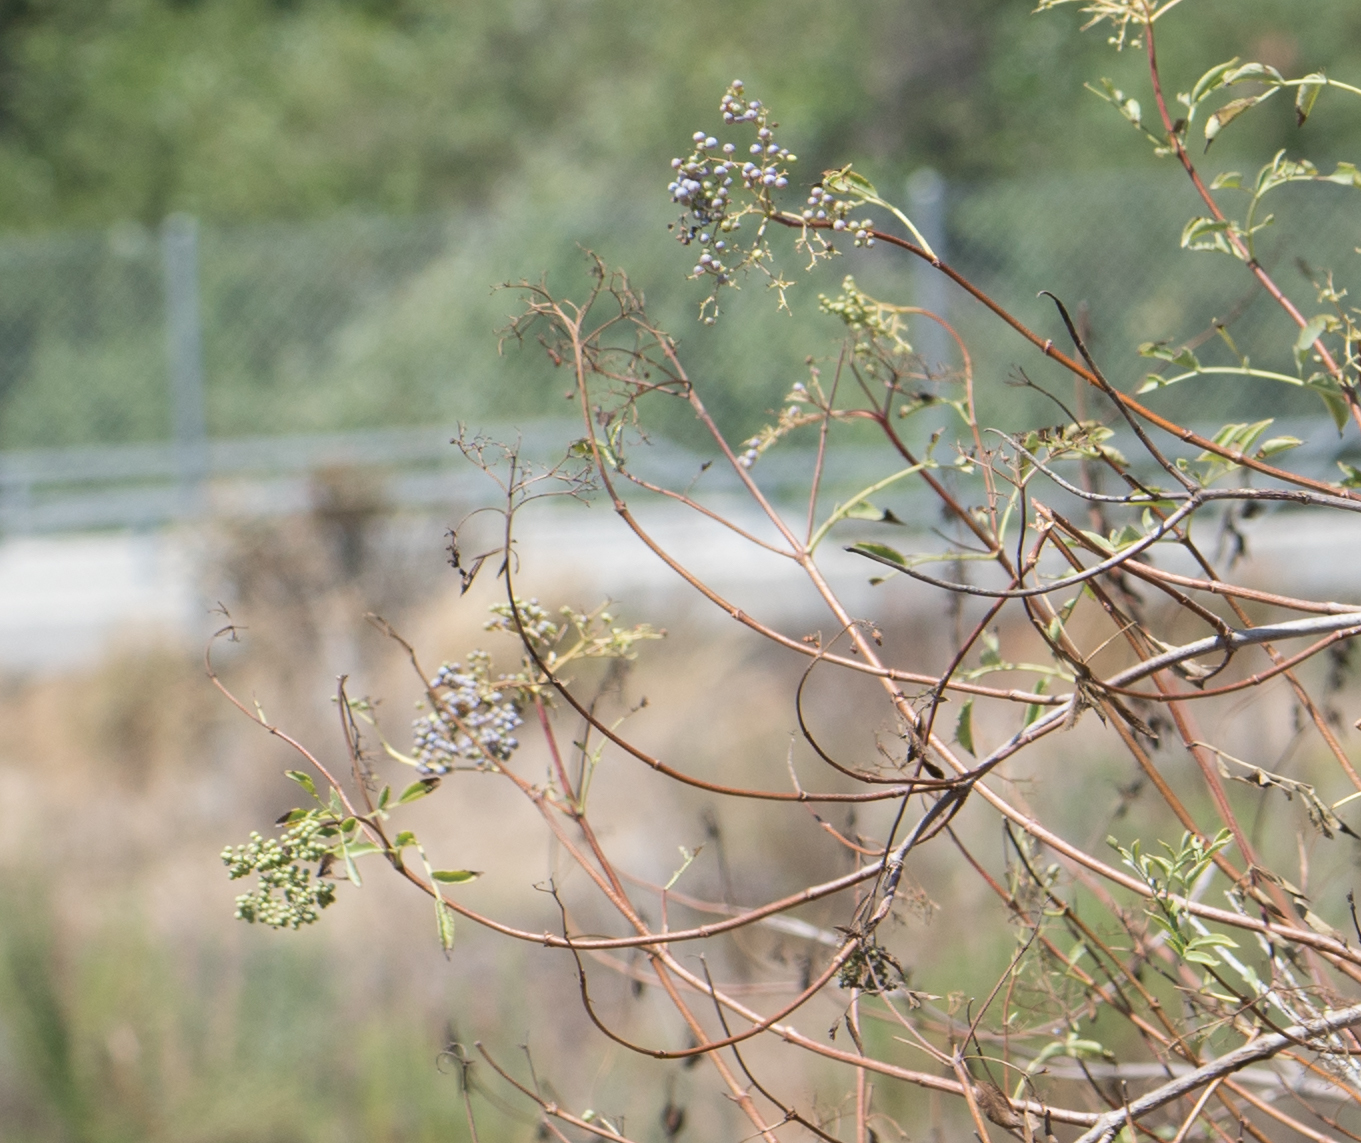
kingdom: Plantae
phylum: Tracheophyta
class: Magnoliopsida
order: Dipsacales
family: Viburnaceae
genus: Sambucus
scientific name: Sambucus cerulea
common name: Blue elder
